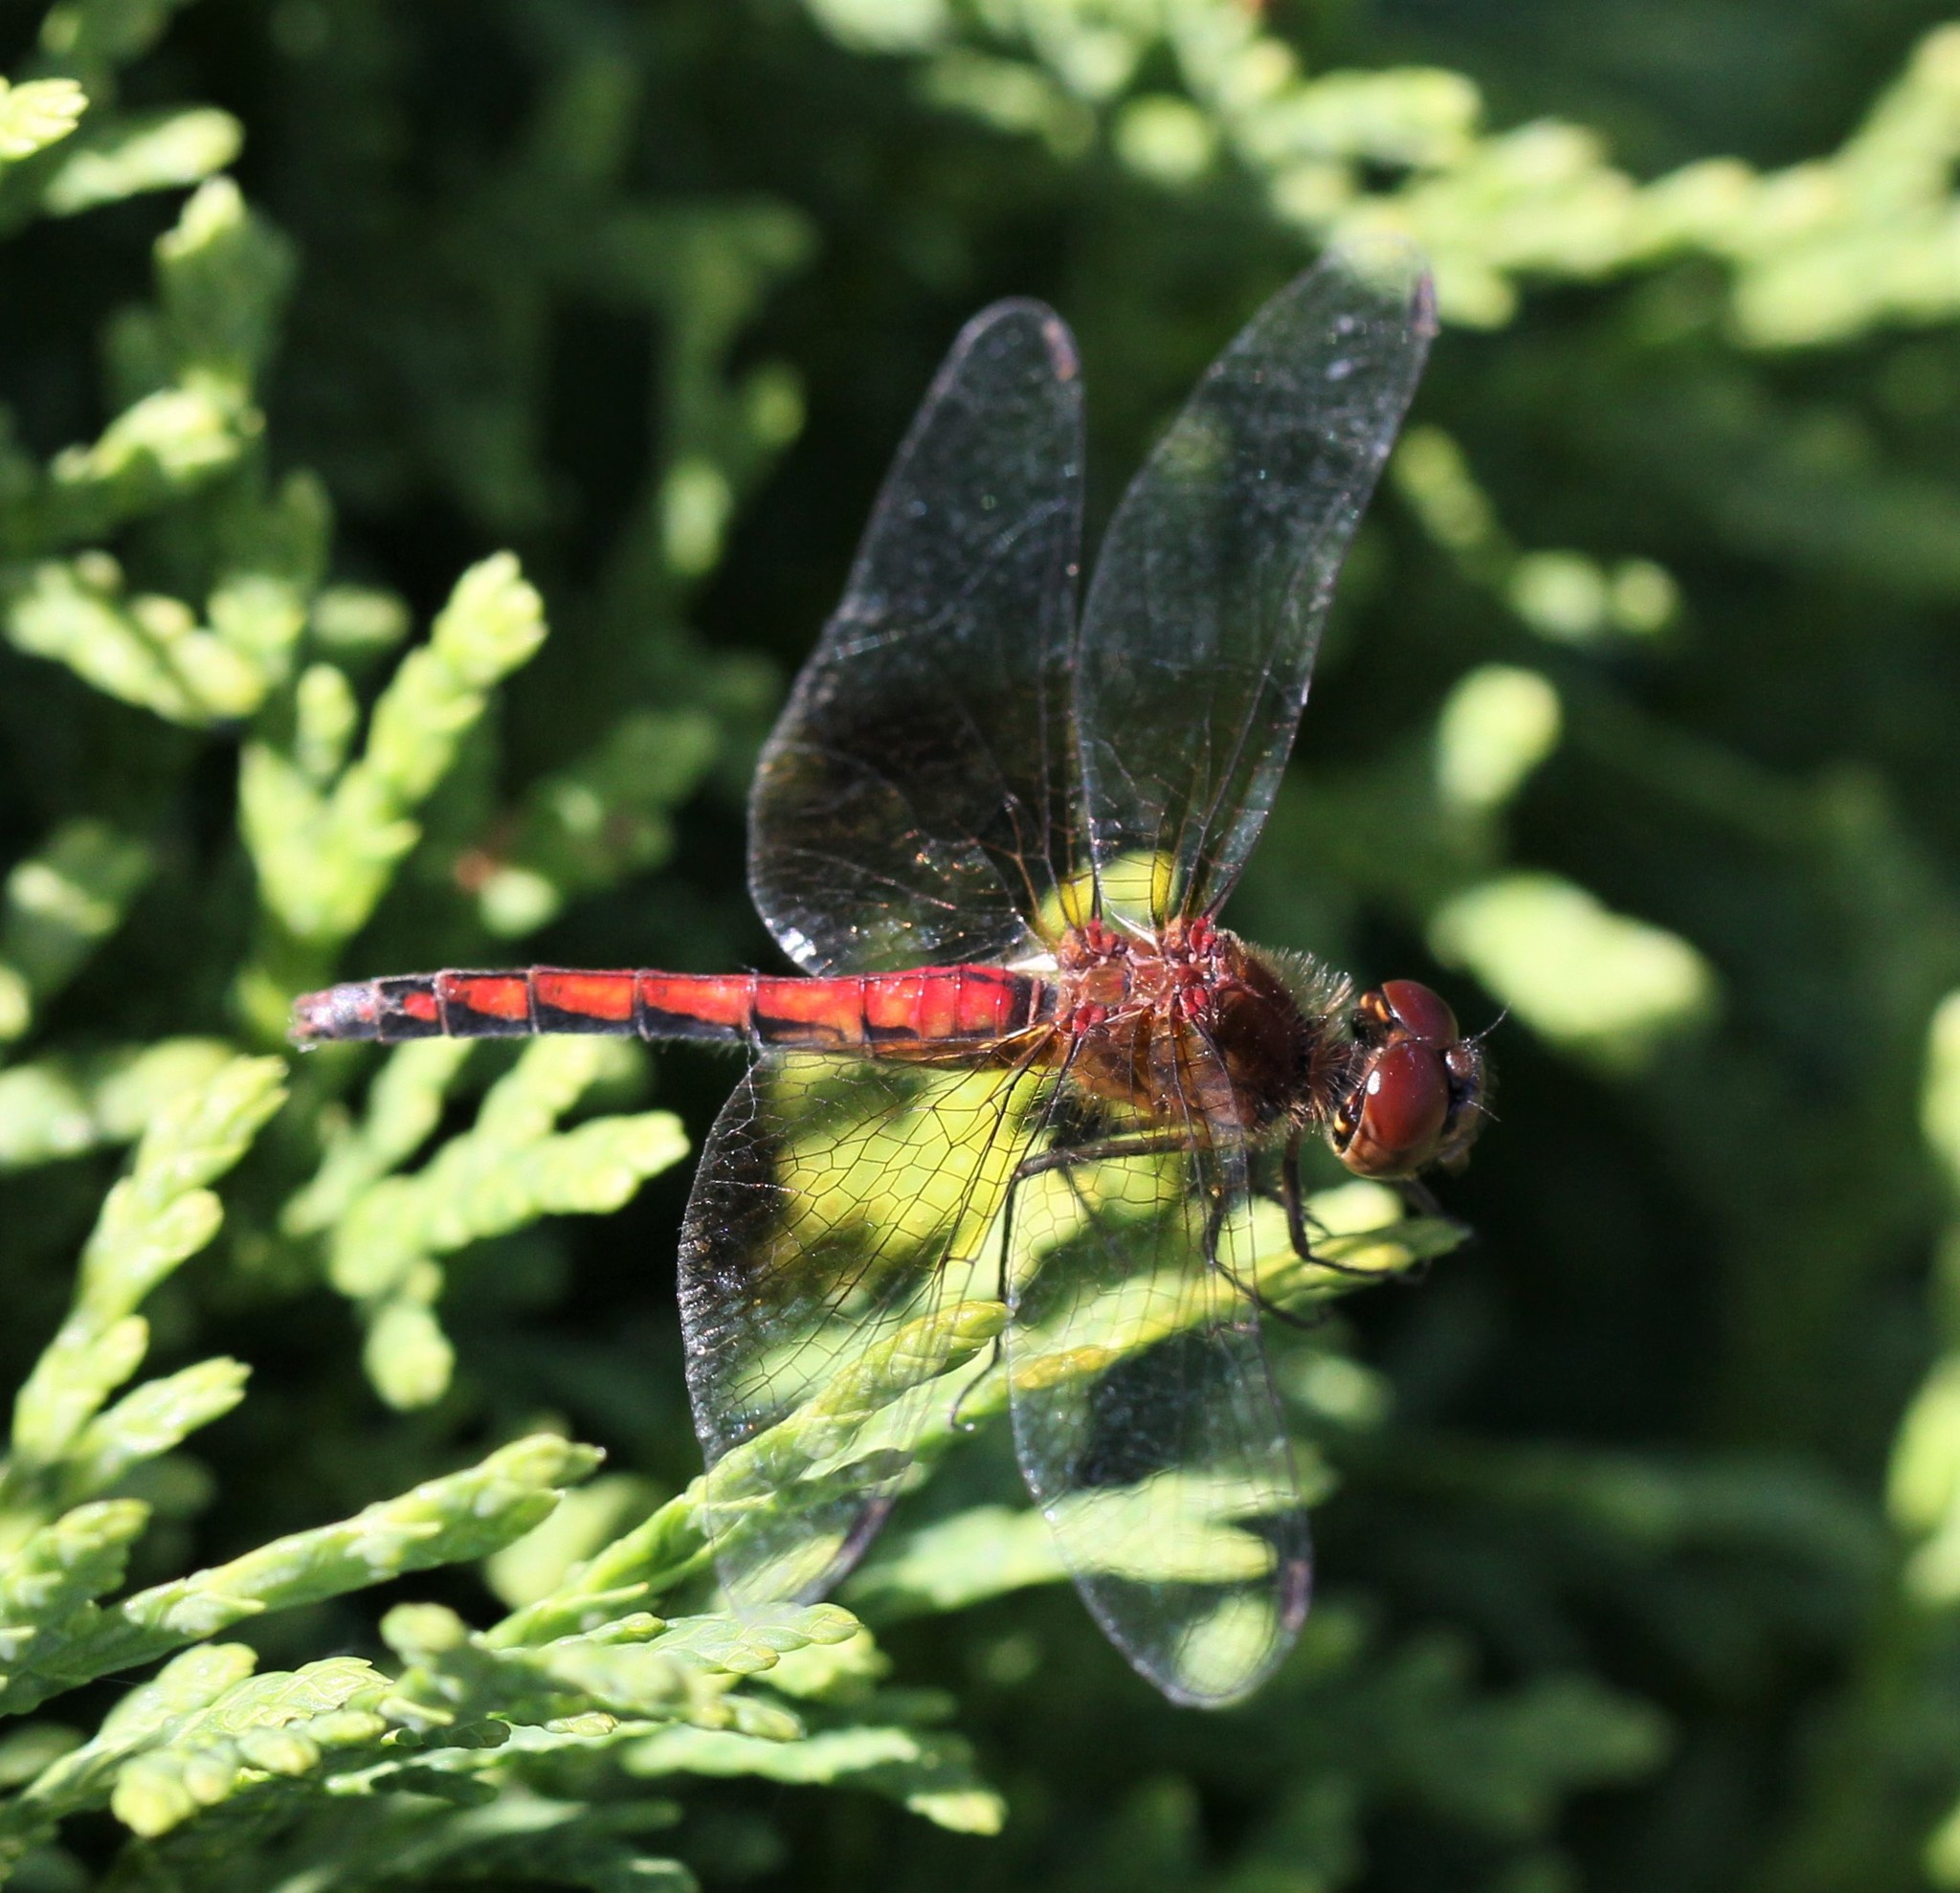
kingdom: Animalia
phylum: Arthropoda
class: Insecta
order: Odonata
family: Libellulidae
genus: Sympetrum
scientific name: Sympetrum semicinctum
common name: Band-winged meadowhawk
